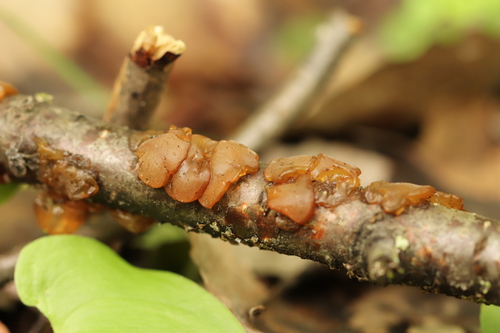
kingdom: Fungi
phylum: Basidiomycota
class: Agaricomycetes
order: Auriculariales
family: Auriculariaceae
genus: Exidia
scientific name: Exidia repanda
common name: Birch jelly
